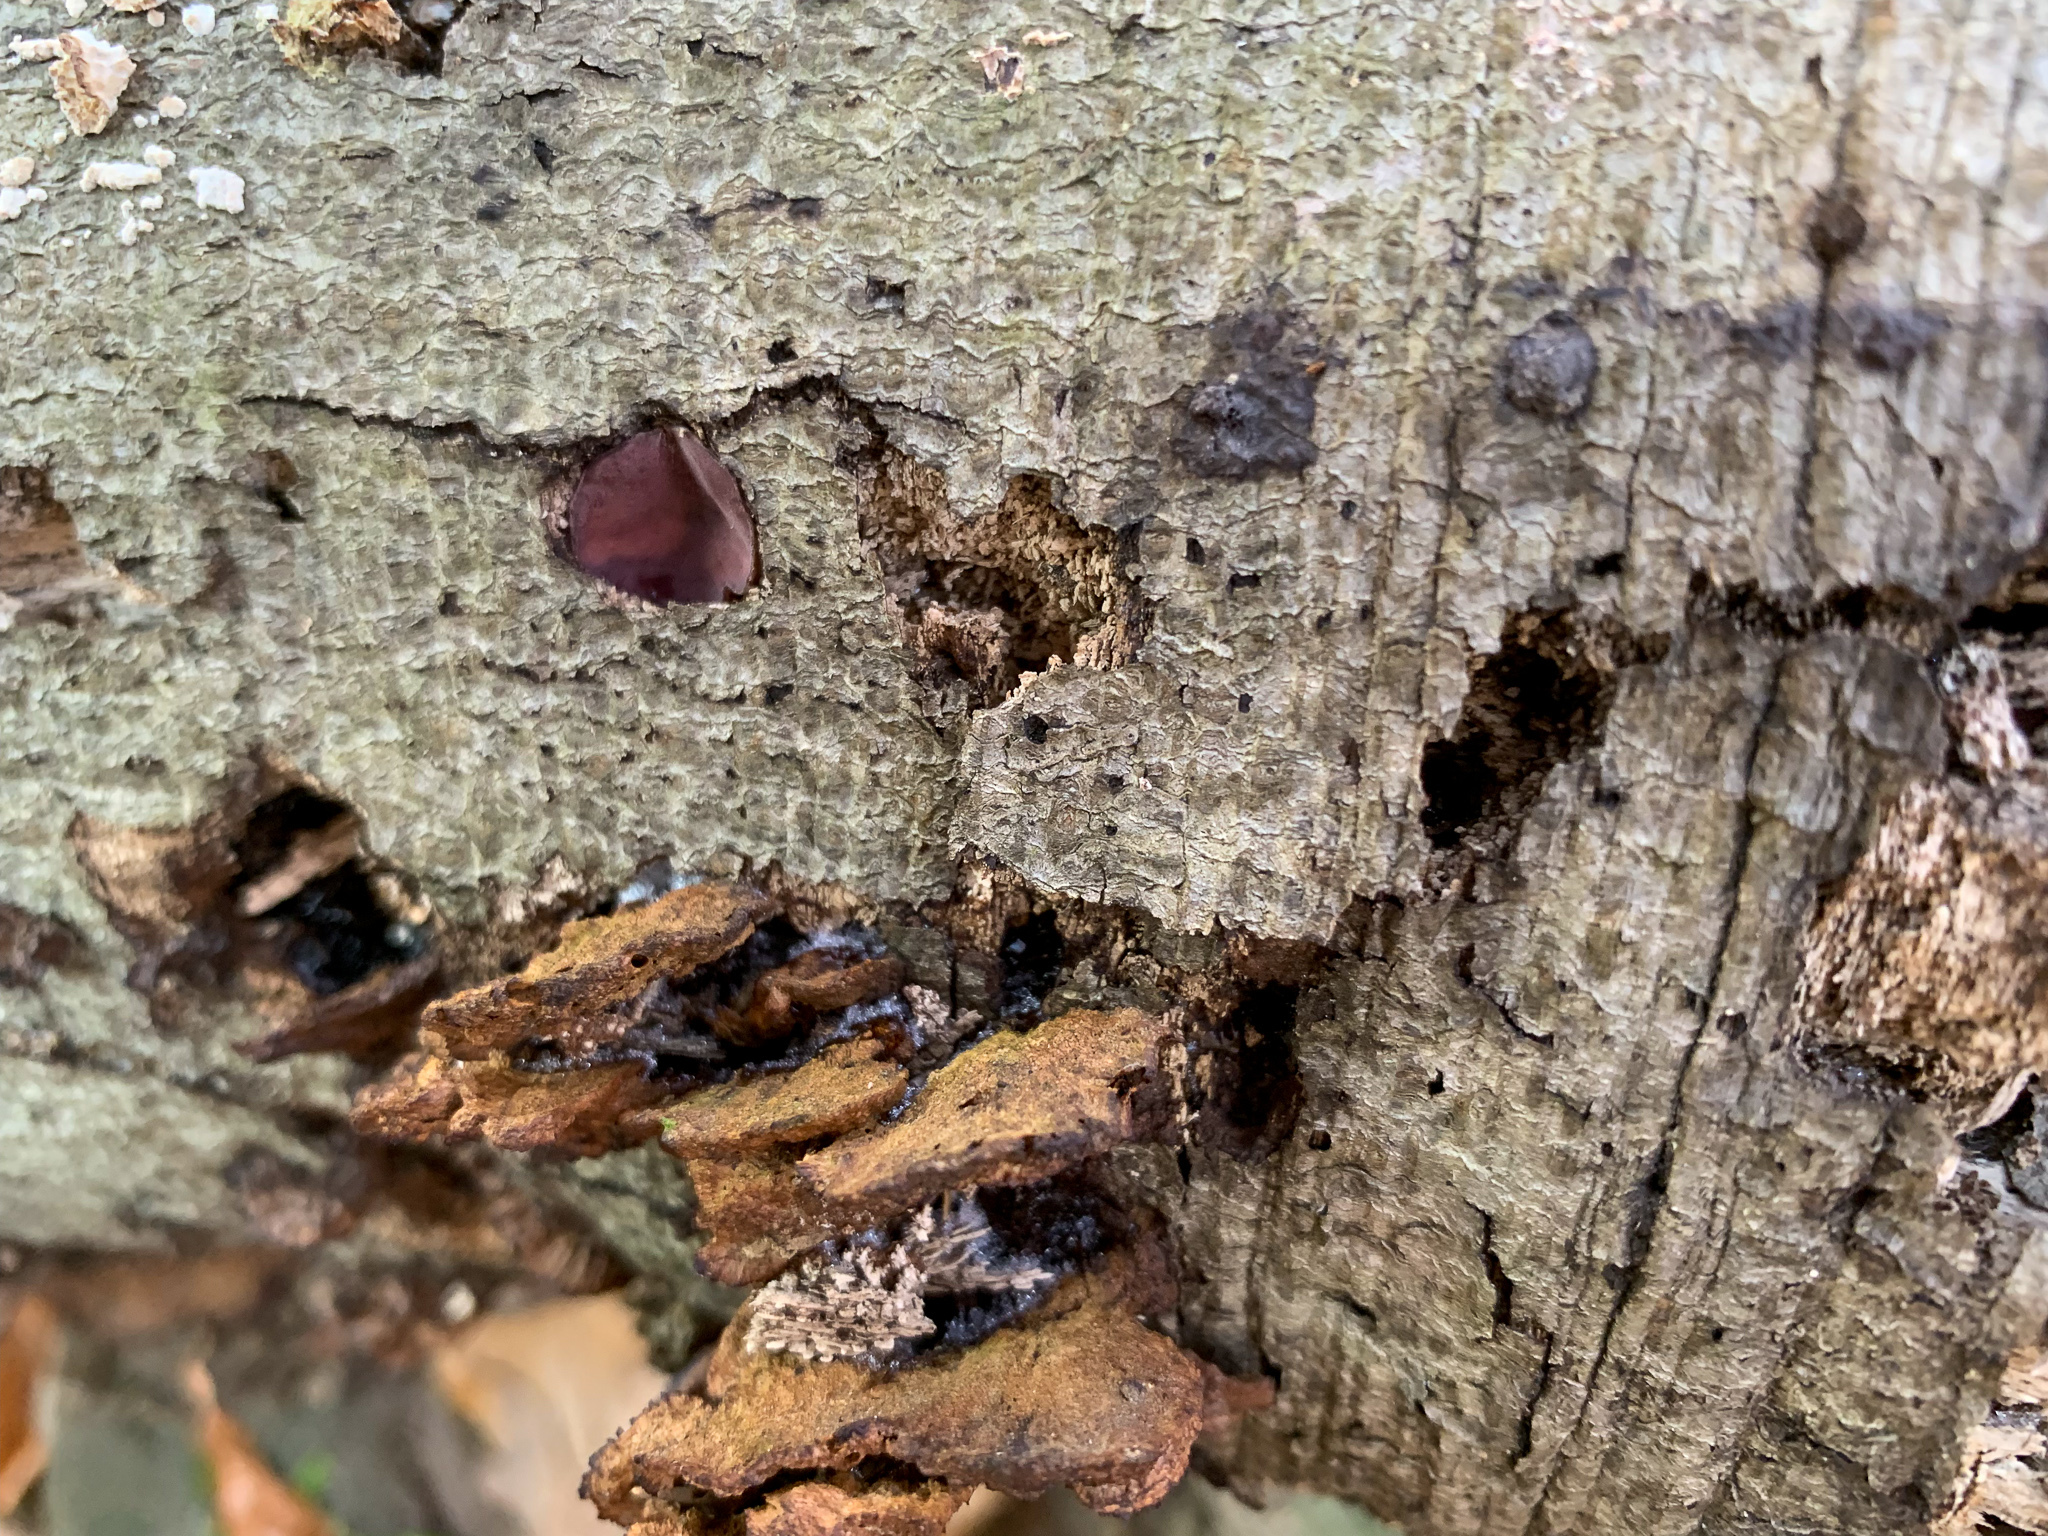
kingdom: Fungi
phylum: Ascomycota
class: Leotiomycetes
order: Helotiales
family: Gelatinodiscaceae
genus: Ascocoryne
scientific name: Ascocoryne sarcoides
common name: Purple jellydisc
